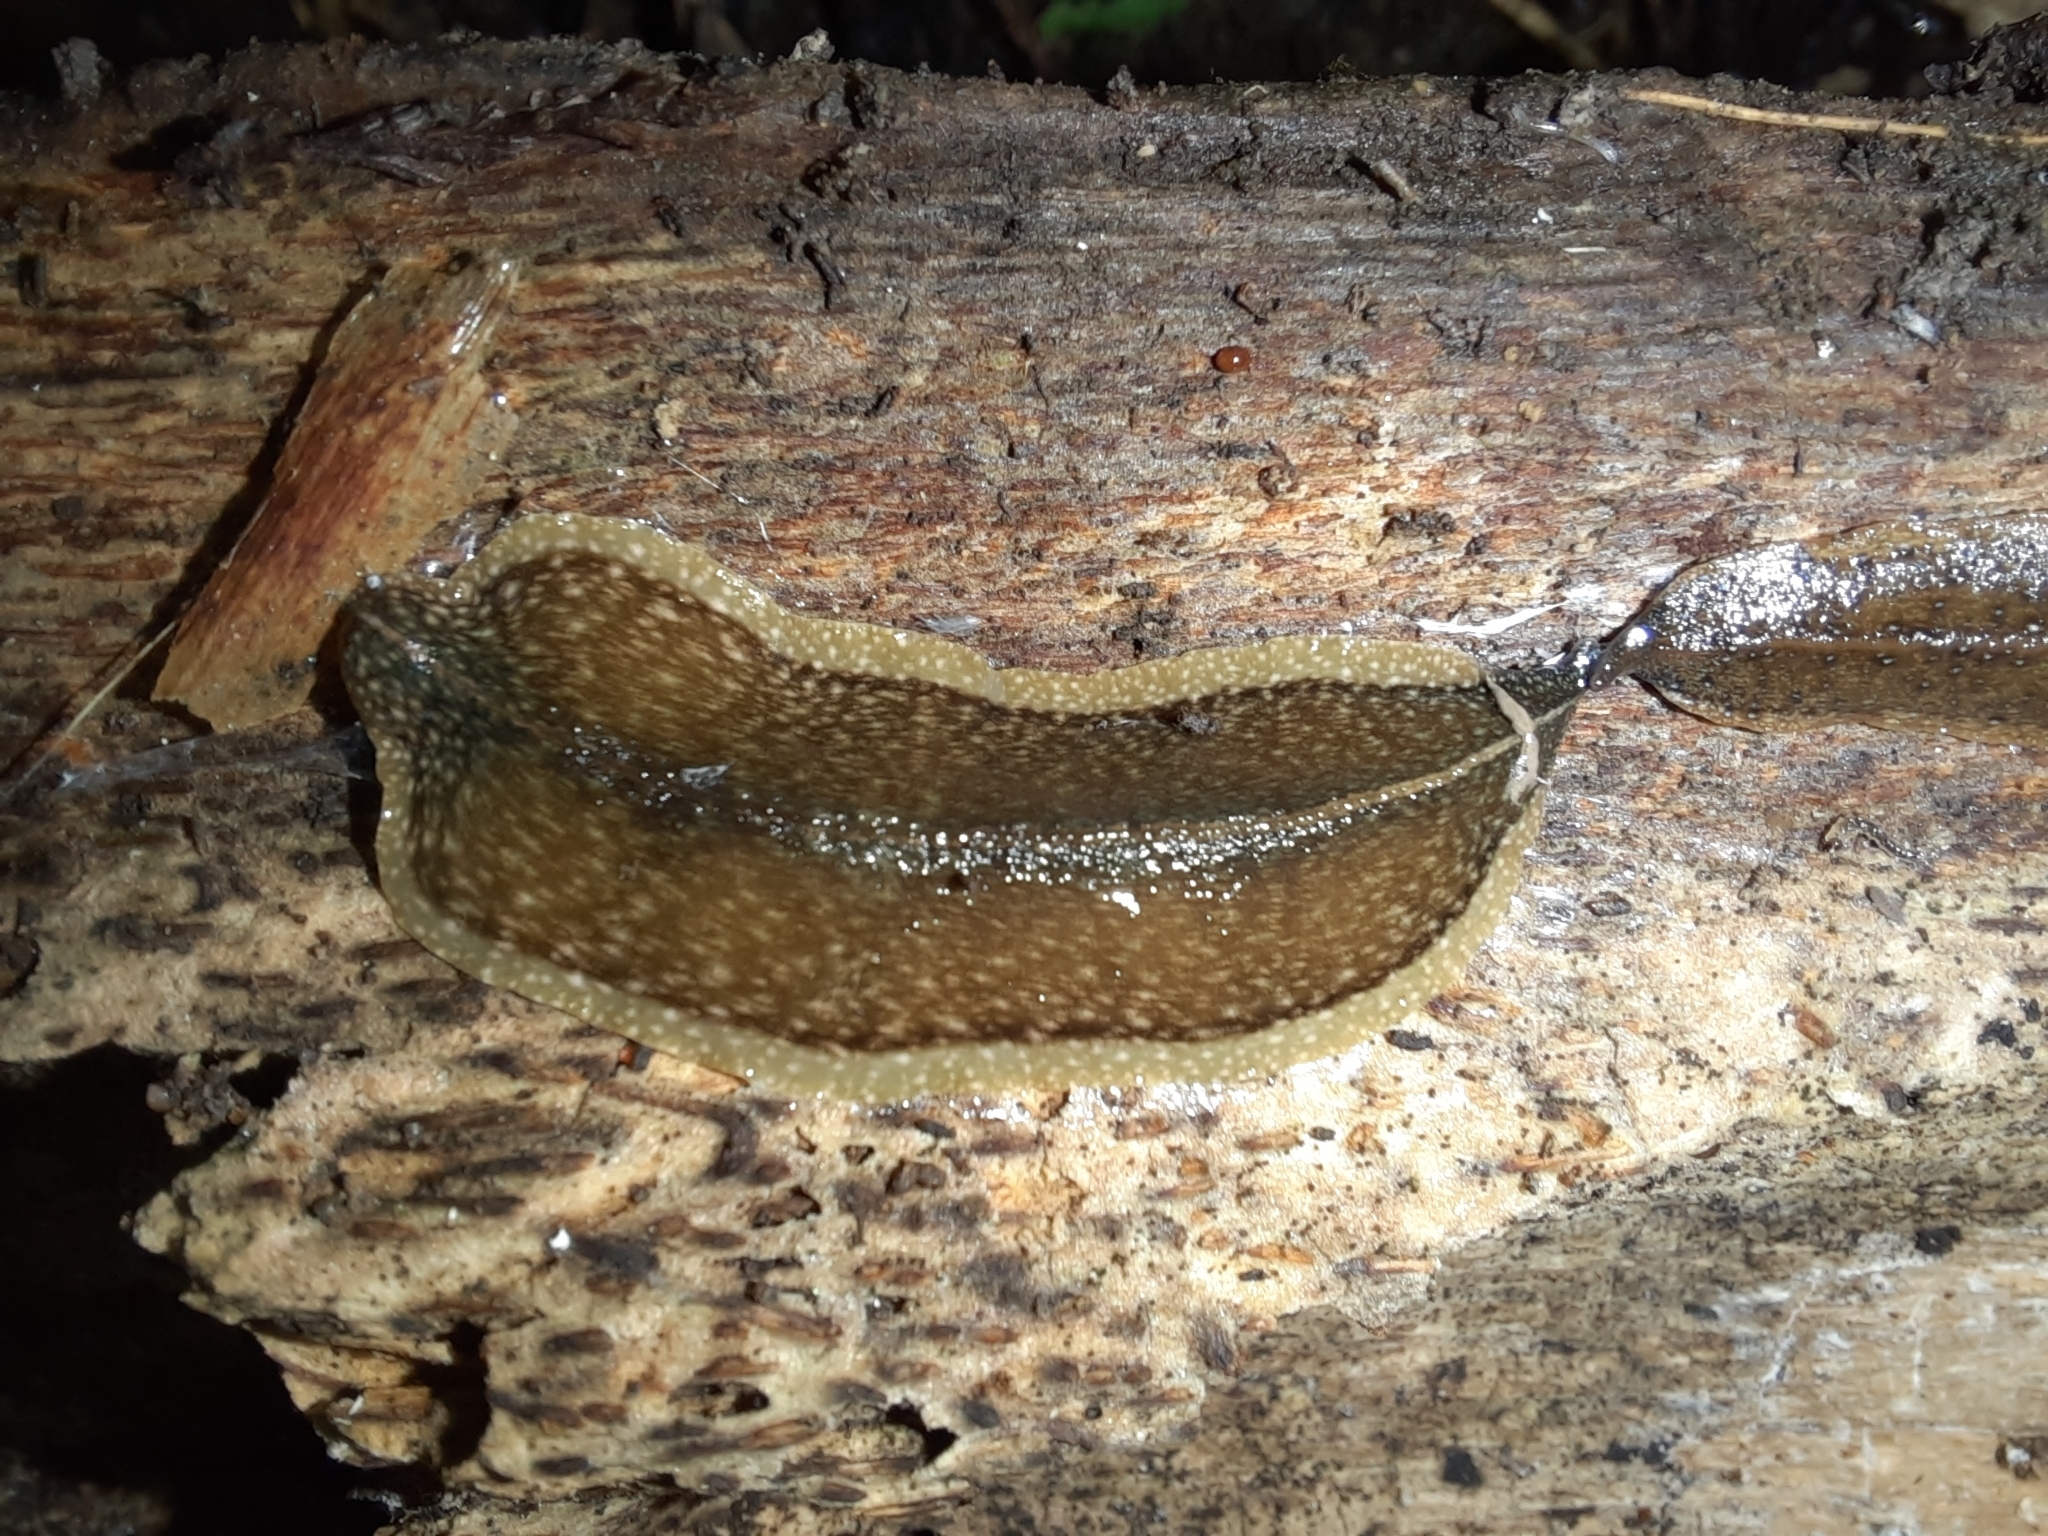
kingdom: Animalia
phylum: Platyhelminthes
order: Tricladida
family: Geoplanidae
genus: Newzealandia
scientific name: Newzealandia graffii
